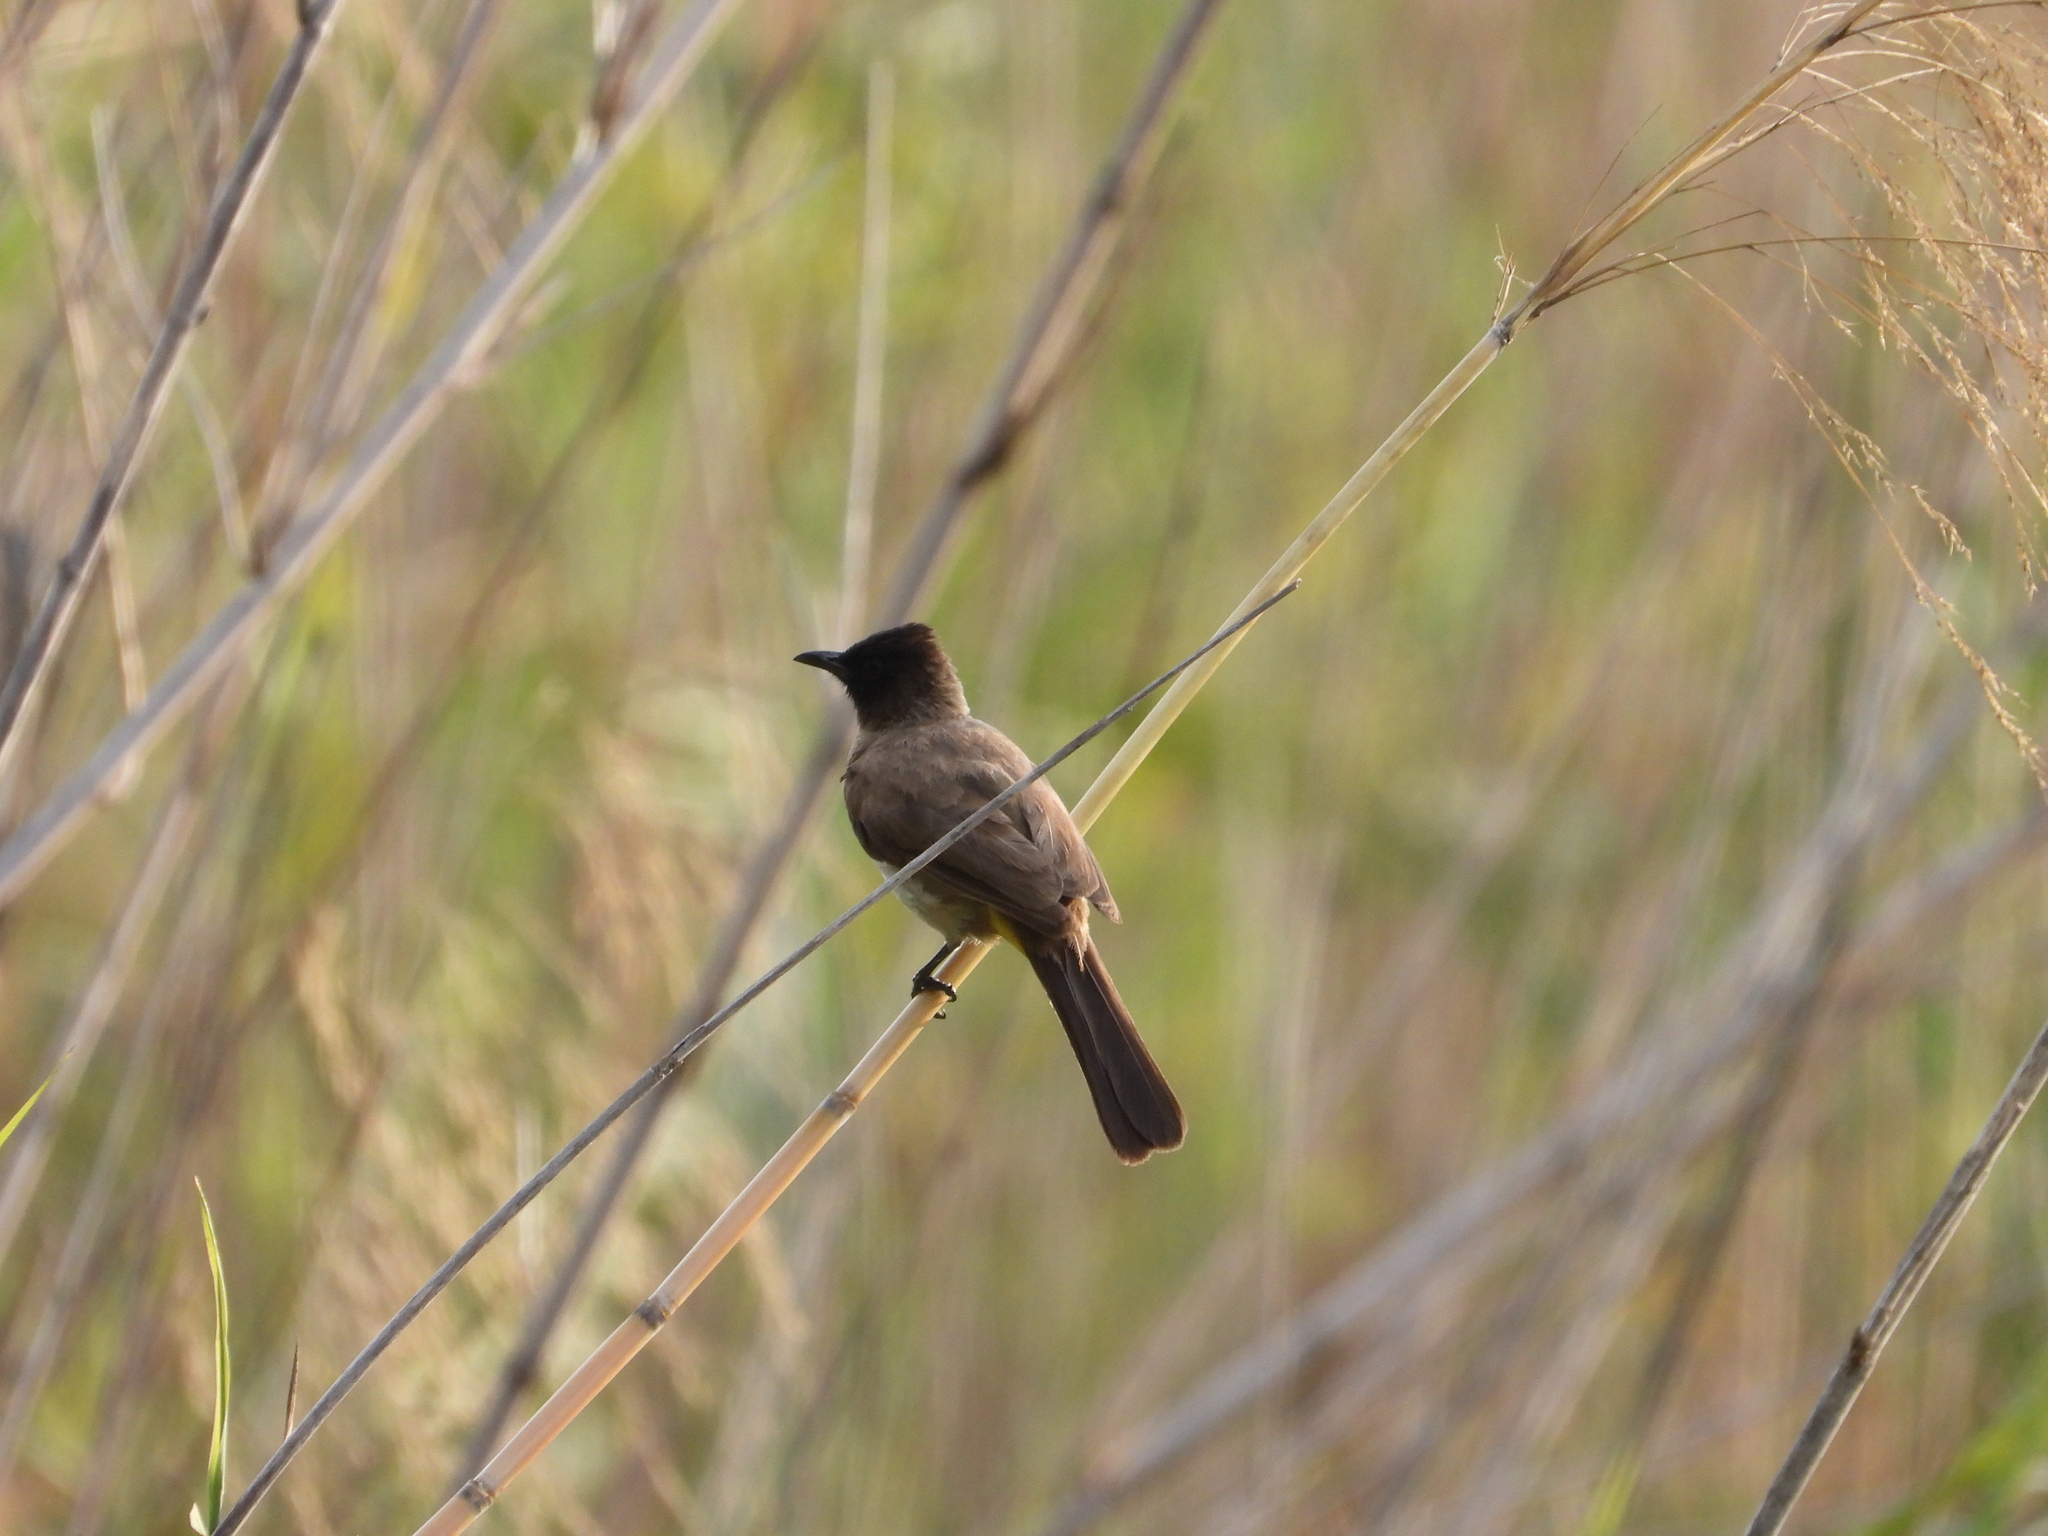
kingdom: Animalia
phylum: Chordata
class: Aves
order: Passeriformes
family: Pycnonotidae
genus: Pycnonotus
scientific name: Pycnonotus barbatus
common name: Common bulbul
